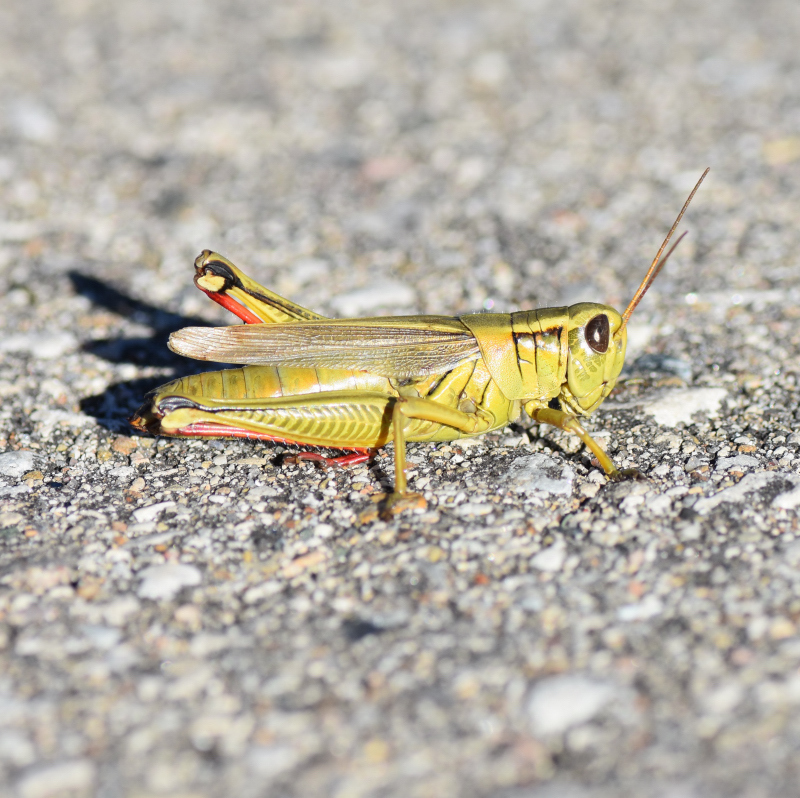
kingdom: Animalia
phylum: Arthropoda
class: Insecta
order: Orthoptera
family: Acrididae
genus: Melanoplus
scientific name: Melanoplus bivittatus
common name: Two-striped grasshopper
